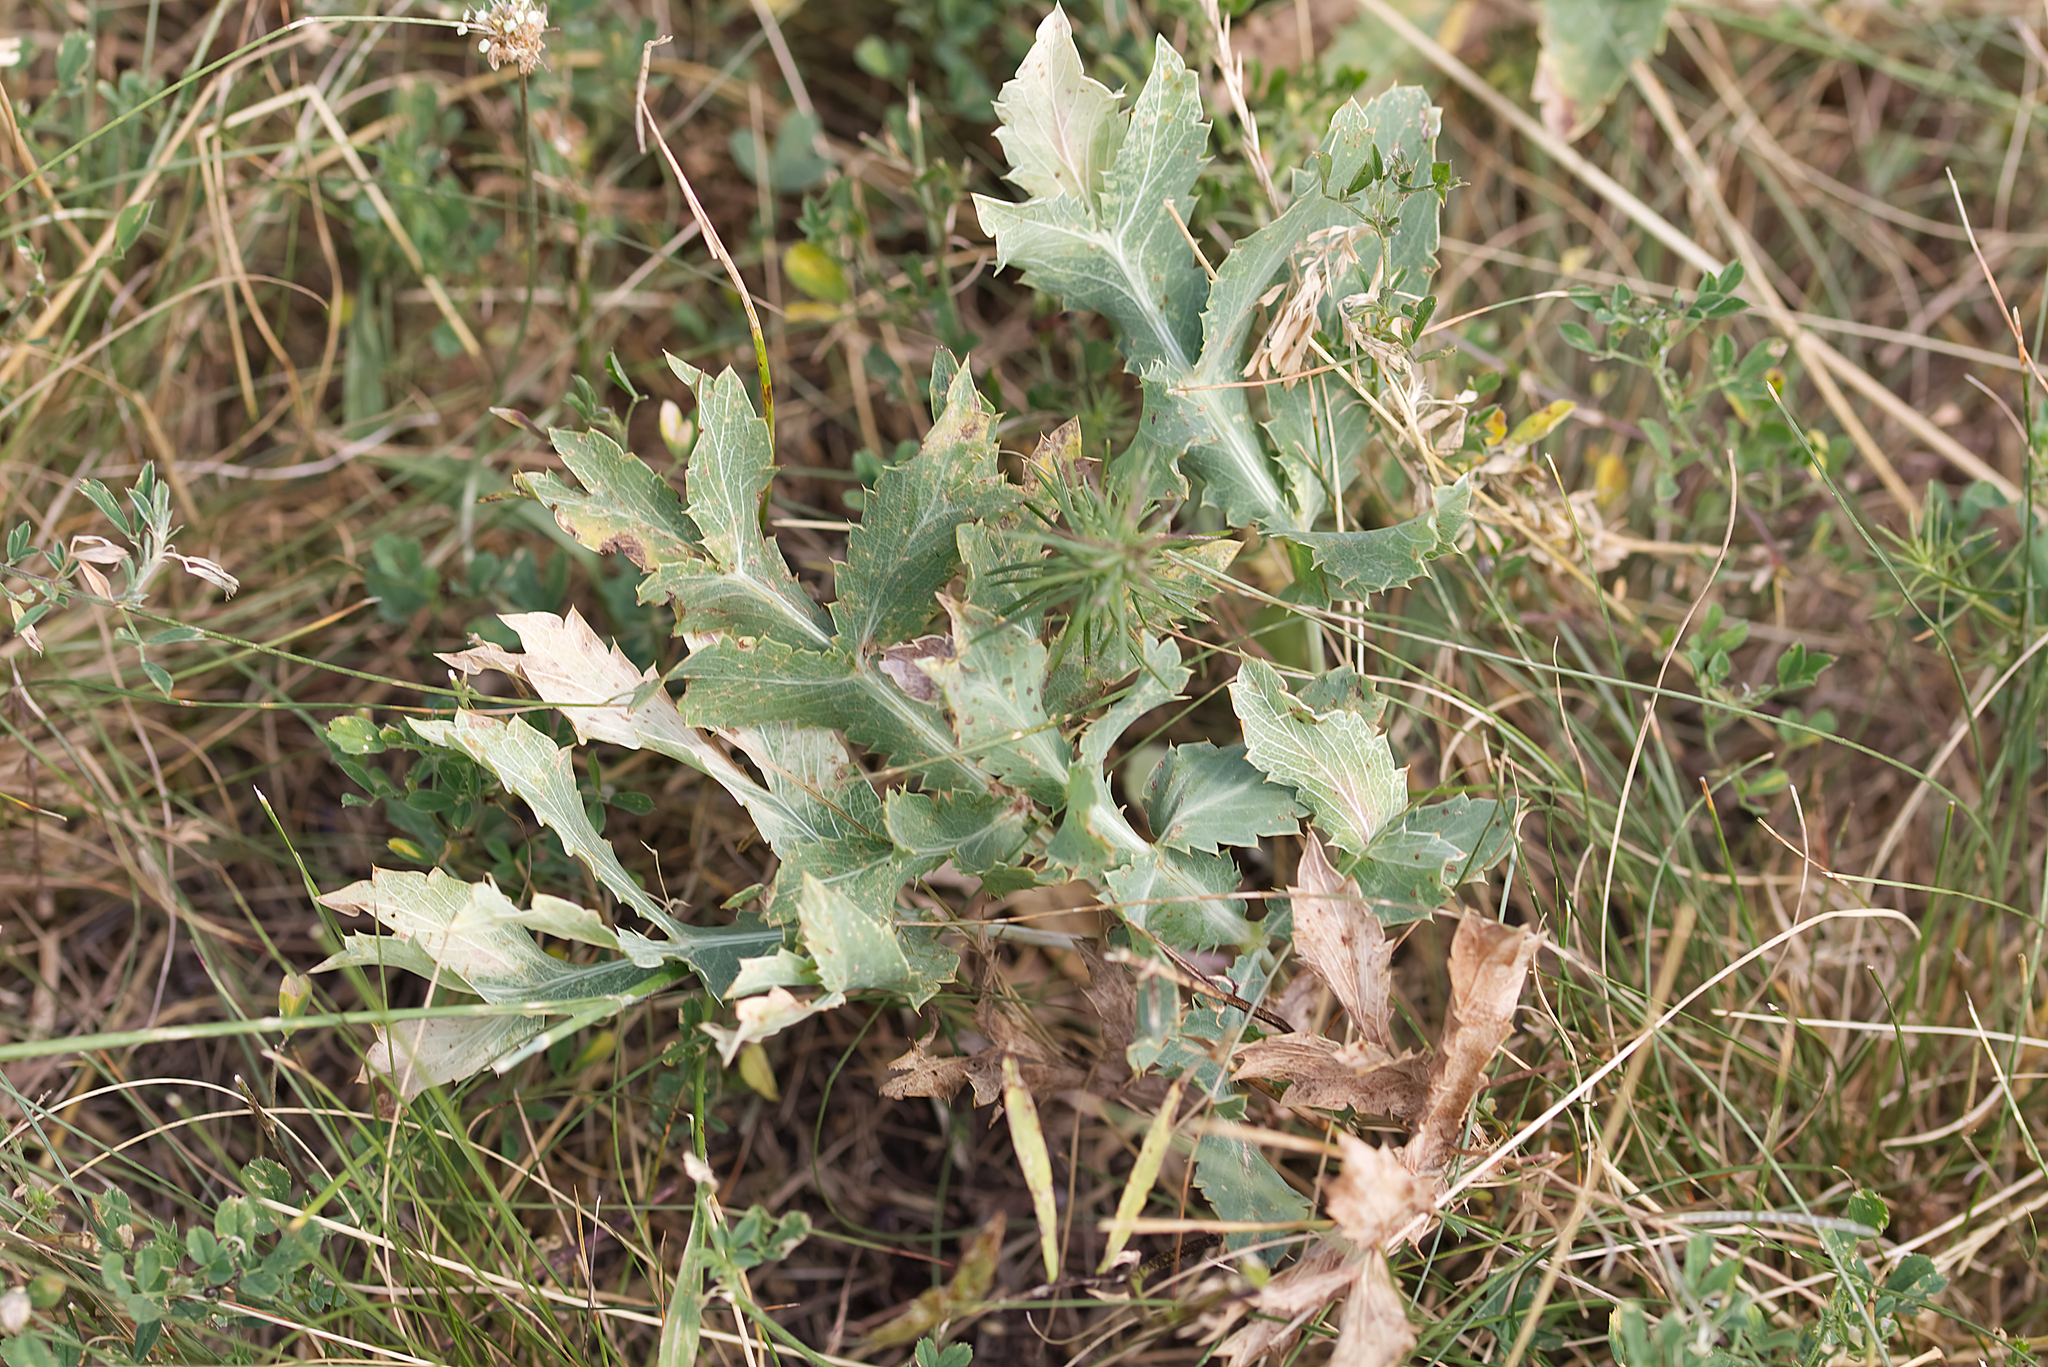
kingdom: Plantae
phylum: Tracheophyta
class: Magnoliopsida
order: Apiales
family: Apiaceae
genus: Eryngium
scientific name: Eryngium campestre
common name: Field eryngo
